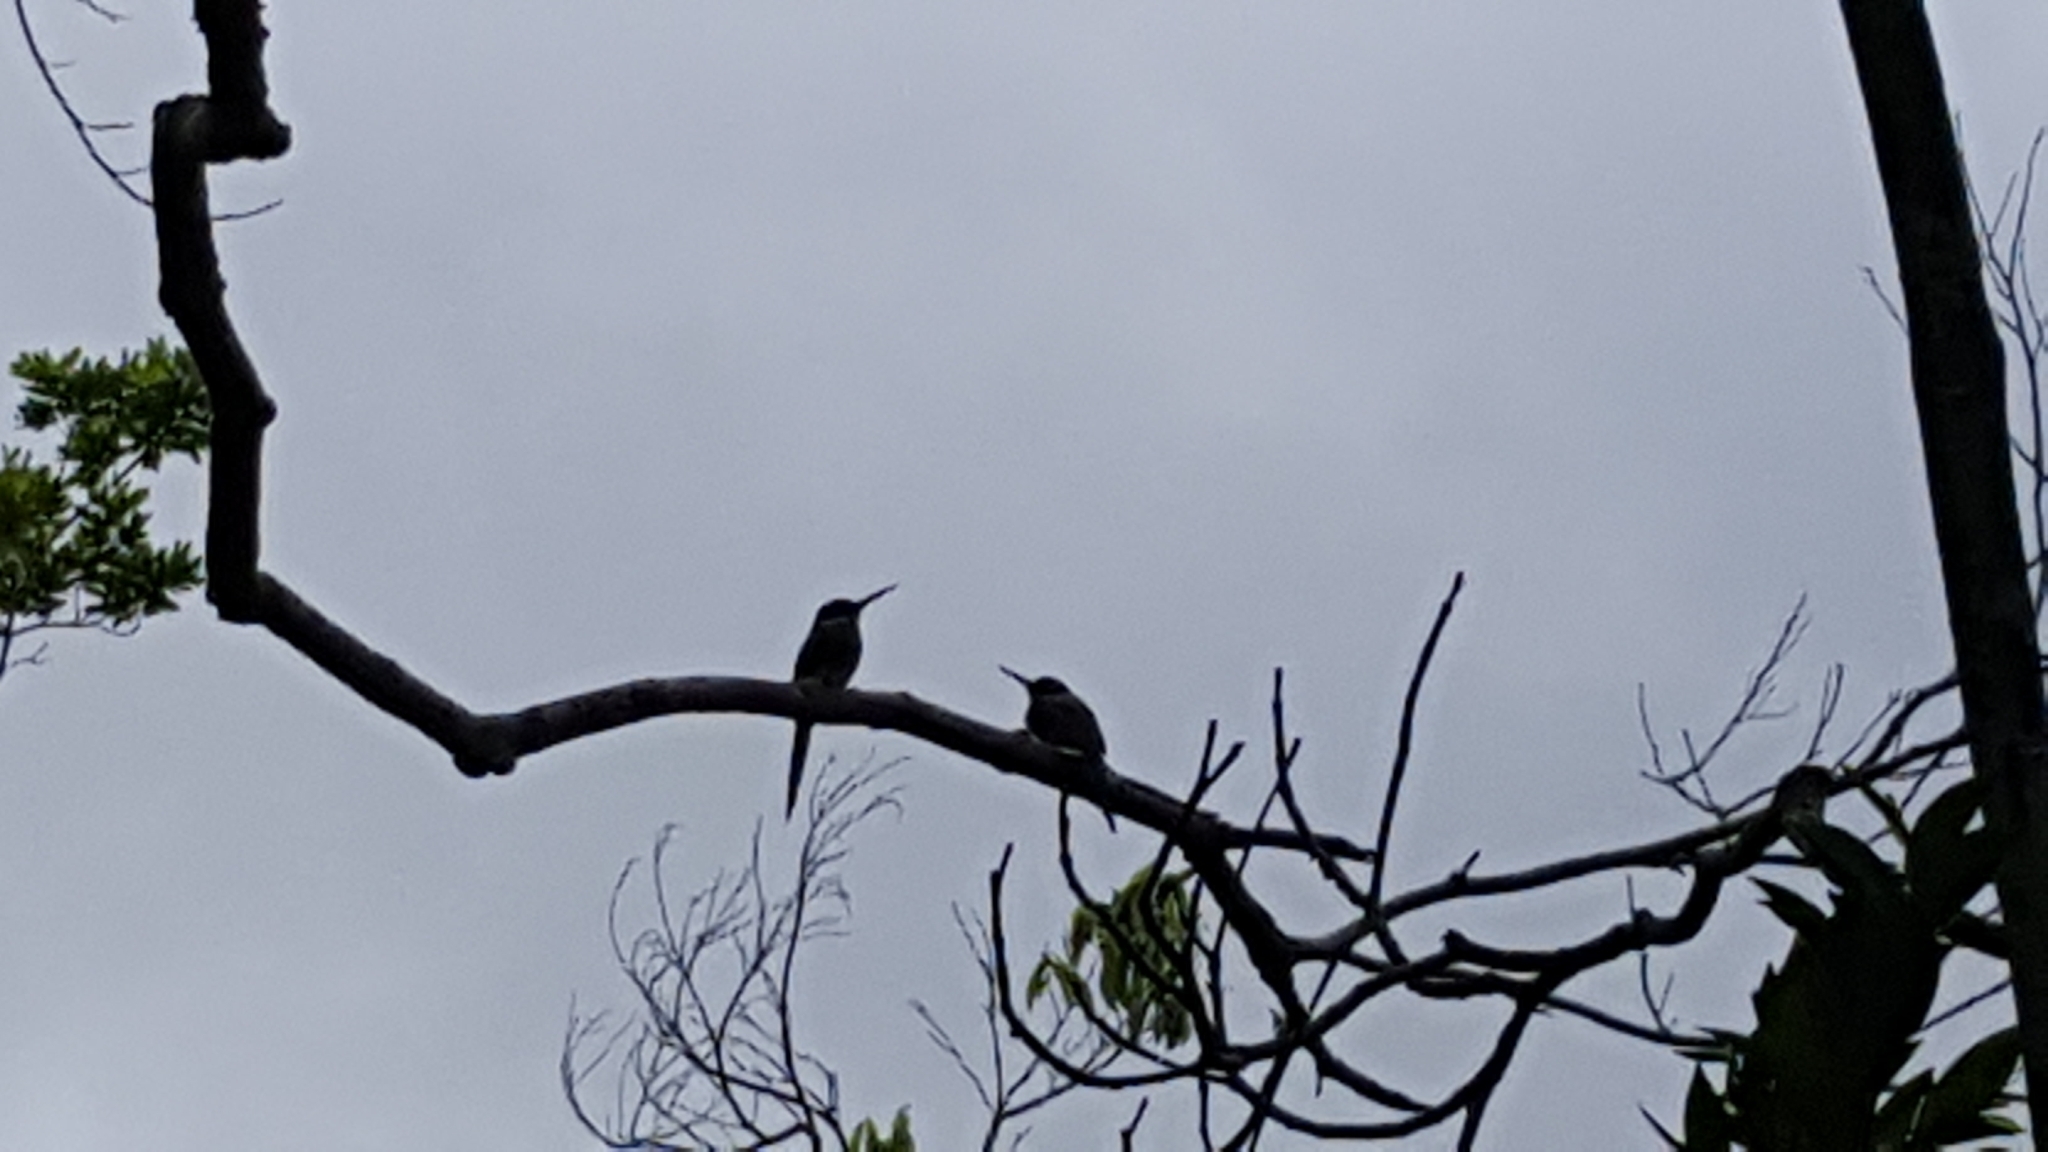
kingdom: Animalia
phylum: Chordata
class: Aves
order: Piciformes
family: Galbulidae
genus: Galbula
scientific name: Galbula dea
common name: Paradise jacamar
